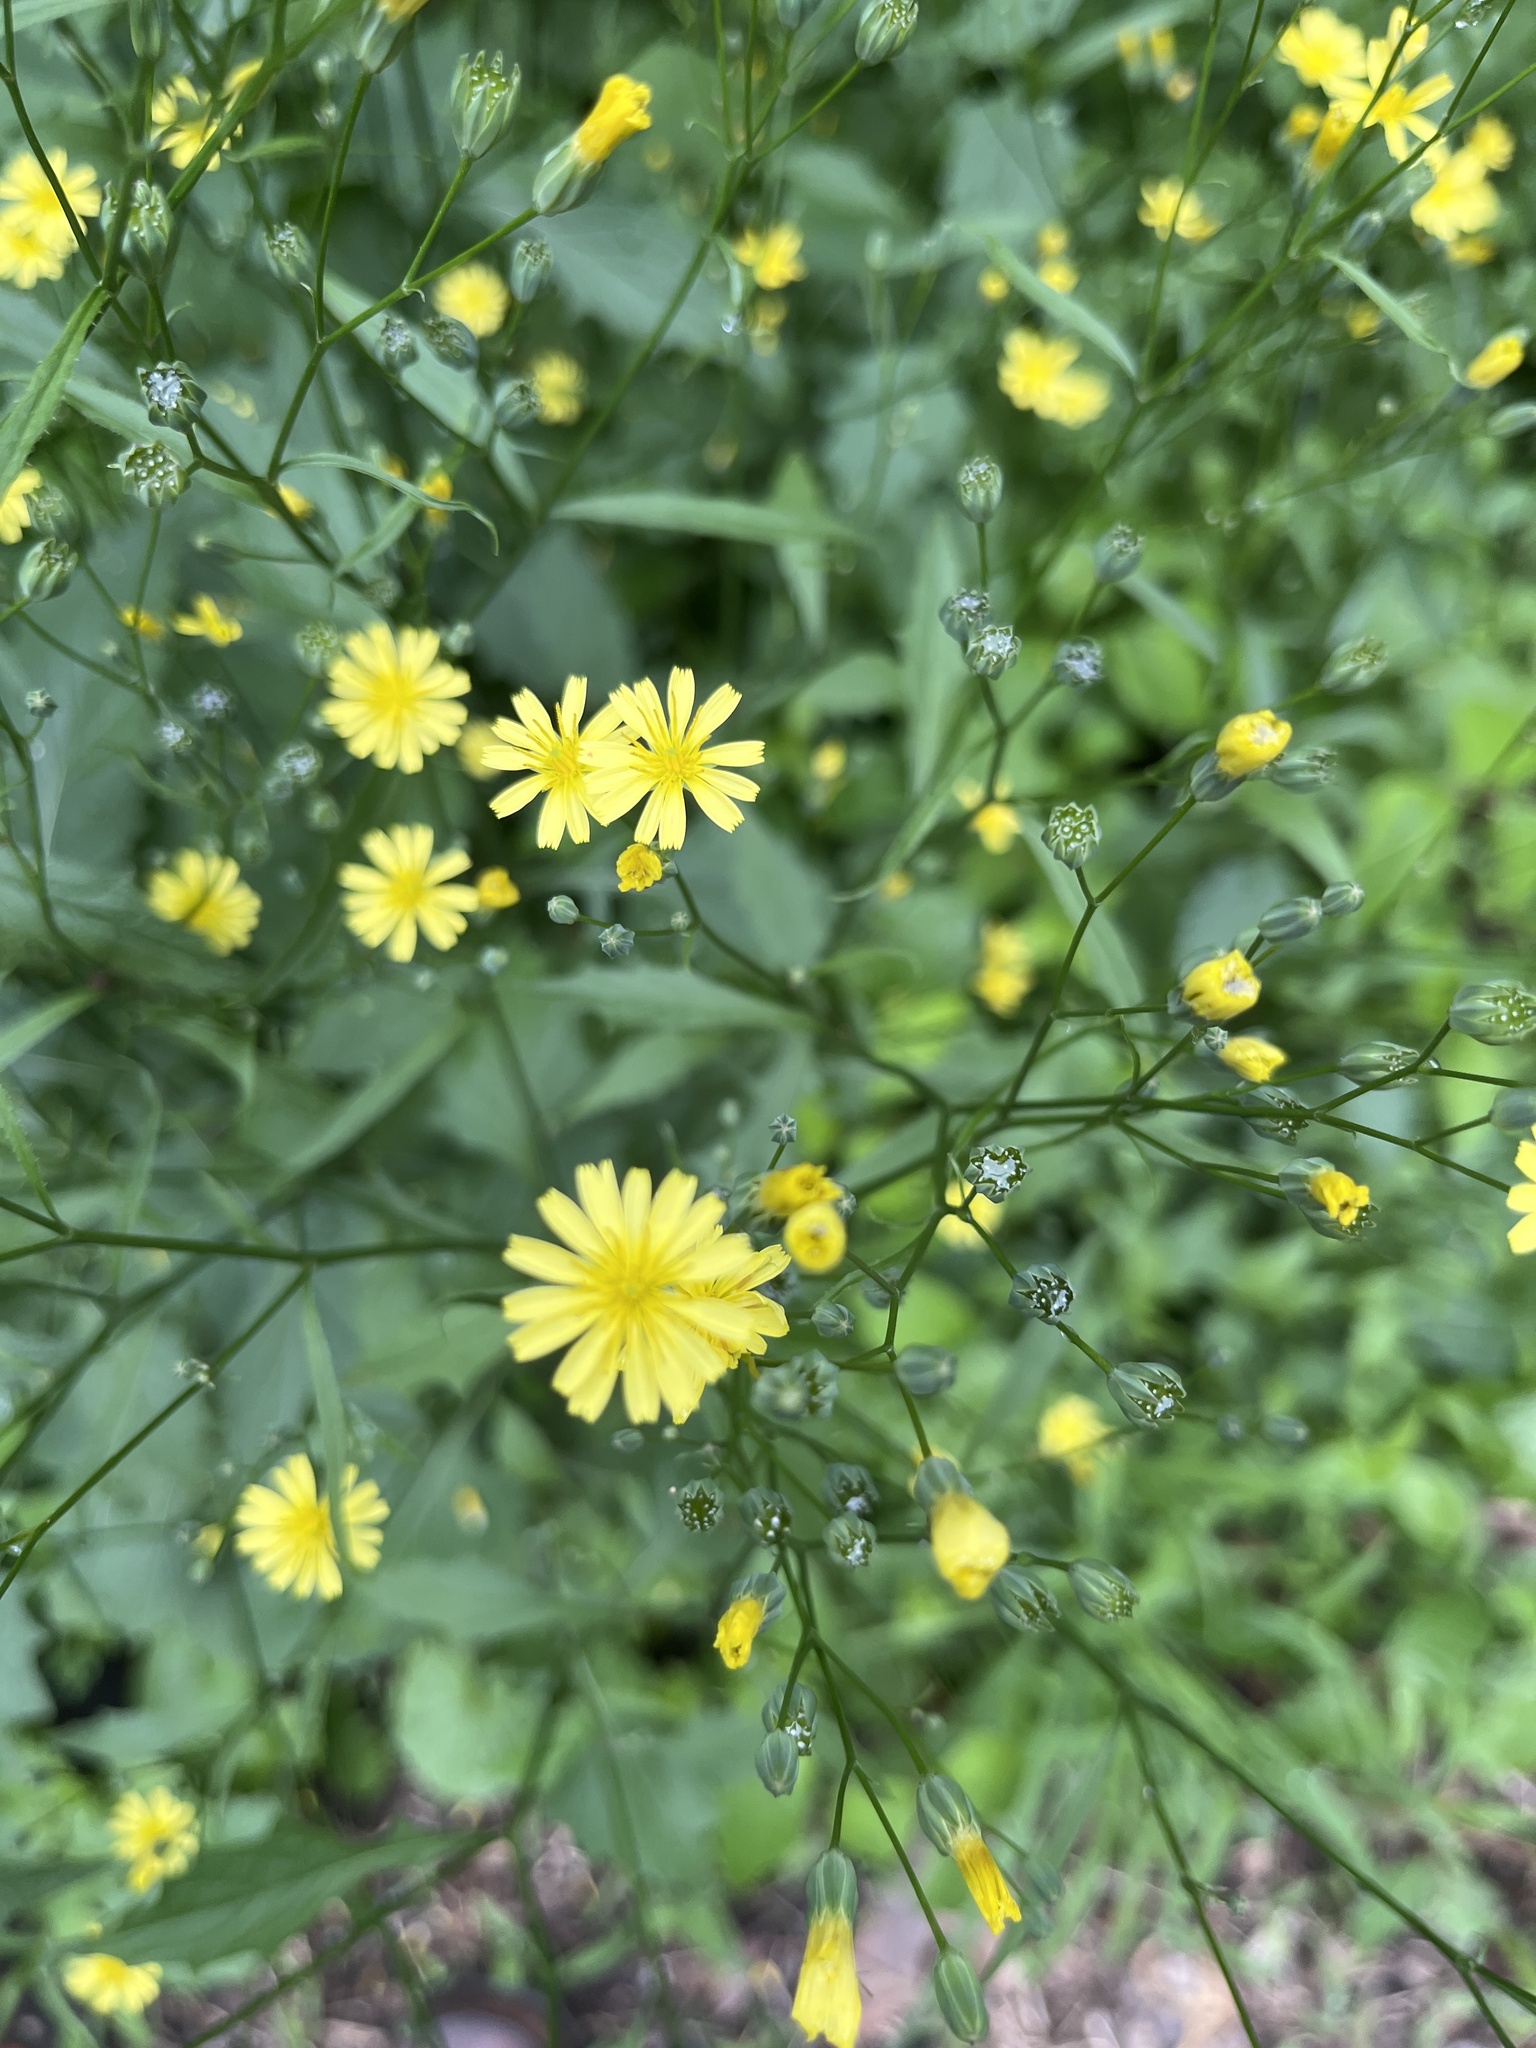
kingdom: Plantae
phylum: Tracheophyta
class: Magnoliopsida
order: Asterales
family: Asteraceae
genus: Lapsana
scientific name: Lapsana communis
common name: Nipplewort
